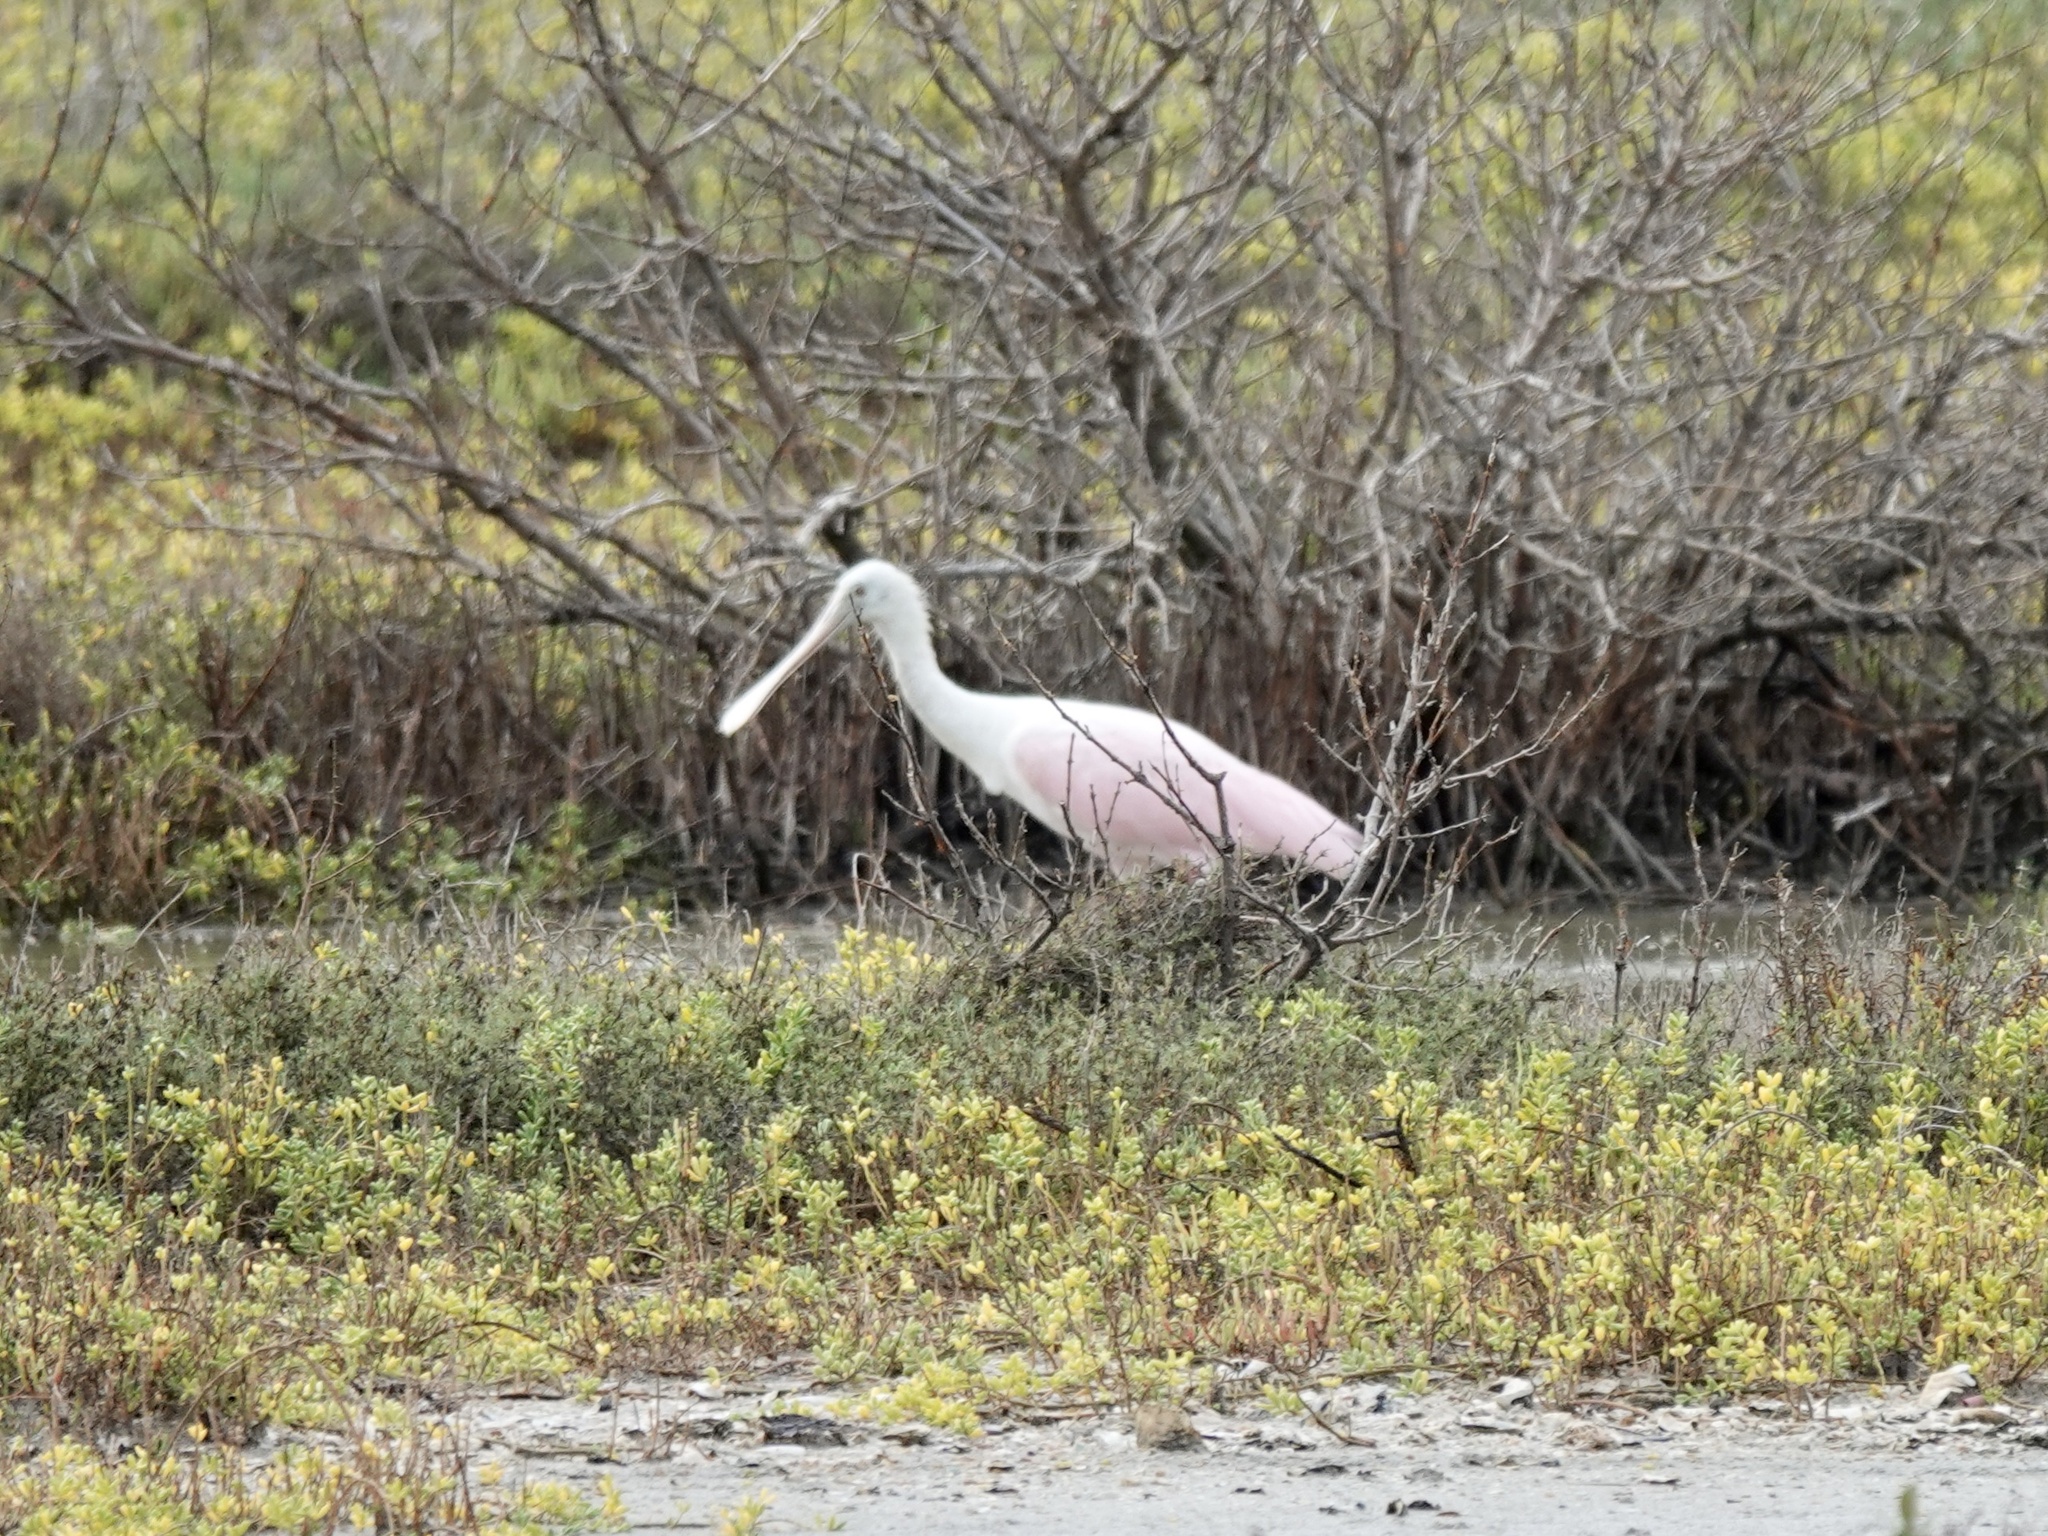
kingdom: Animalia
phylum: Chordata
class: Aves
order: Pelecaniformes
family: Threskiornithidae
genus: Platalea
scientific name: Platalea ajaja
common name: Roseate spoonbill
